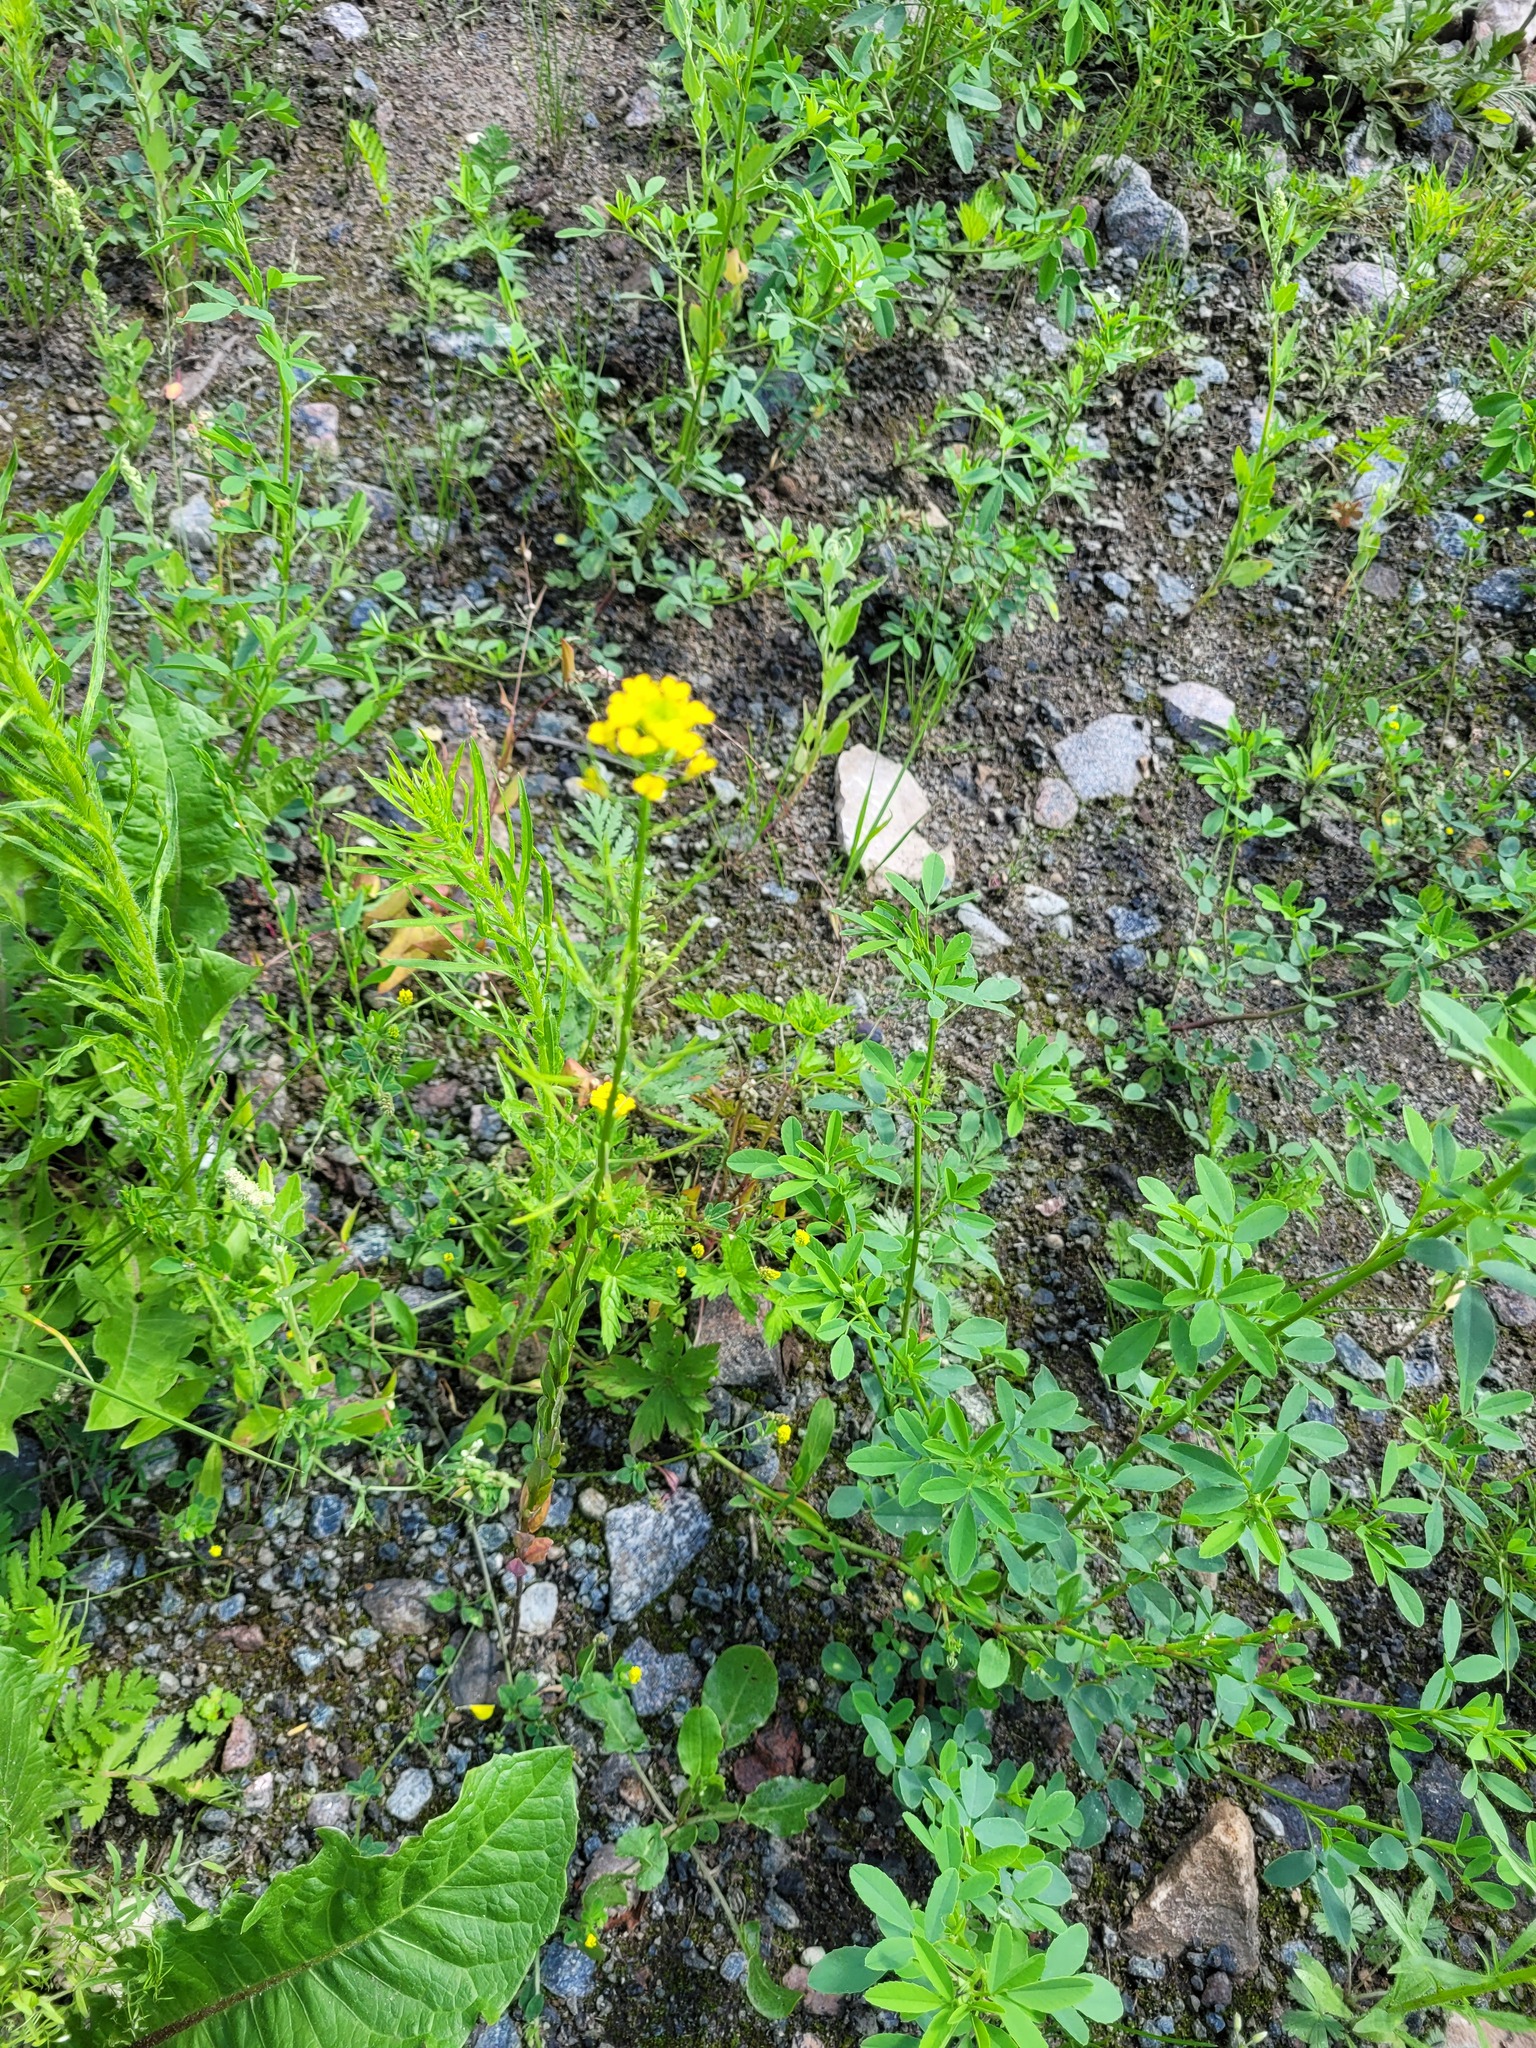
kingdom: Plantae
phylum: Tracheophyta
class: Magnoliopsida
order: Brassicales
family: Brassicaceae
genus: Erysimum
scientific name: Erysimum cheiranthoides
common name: Treacle mustard
